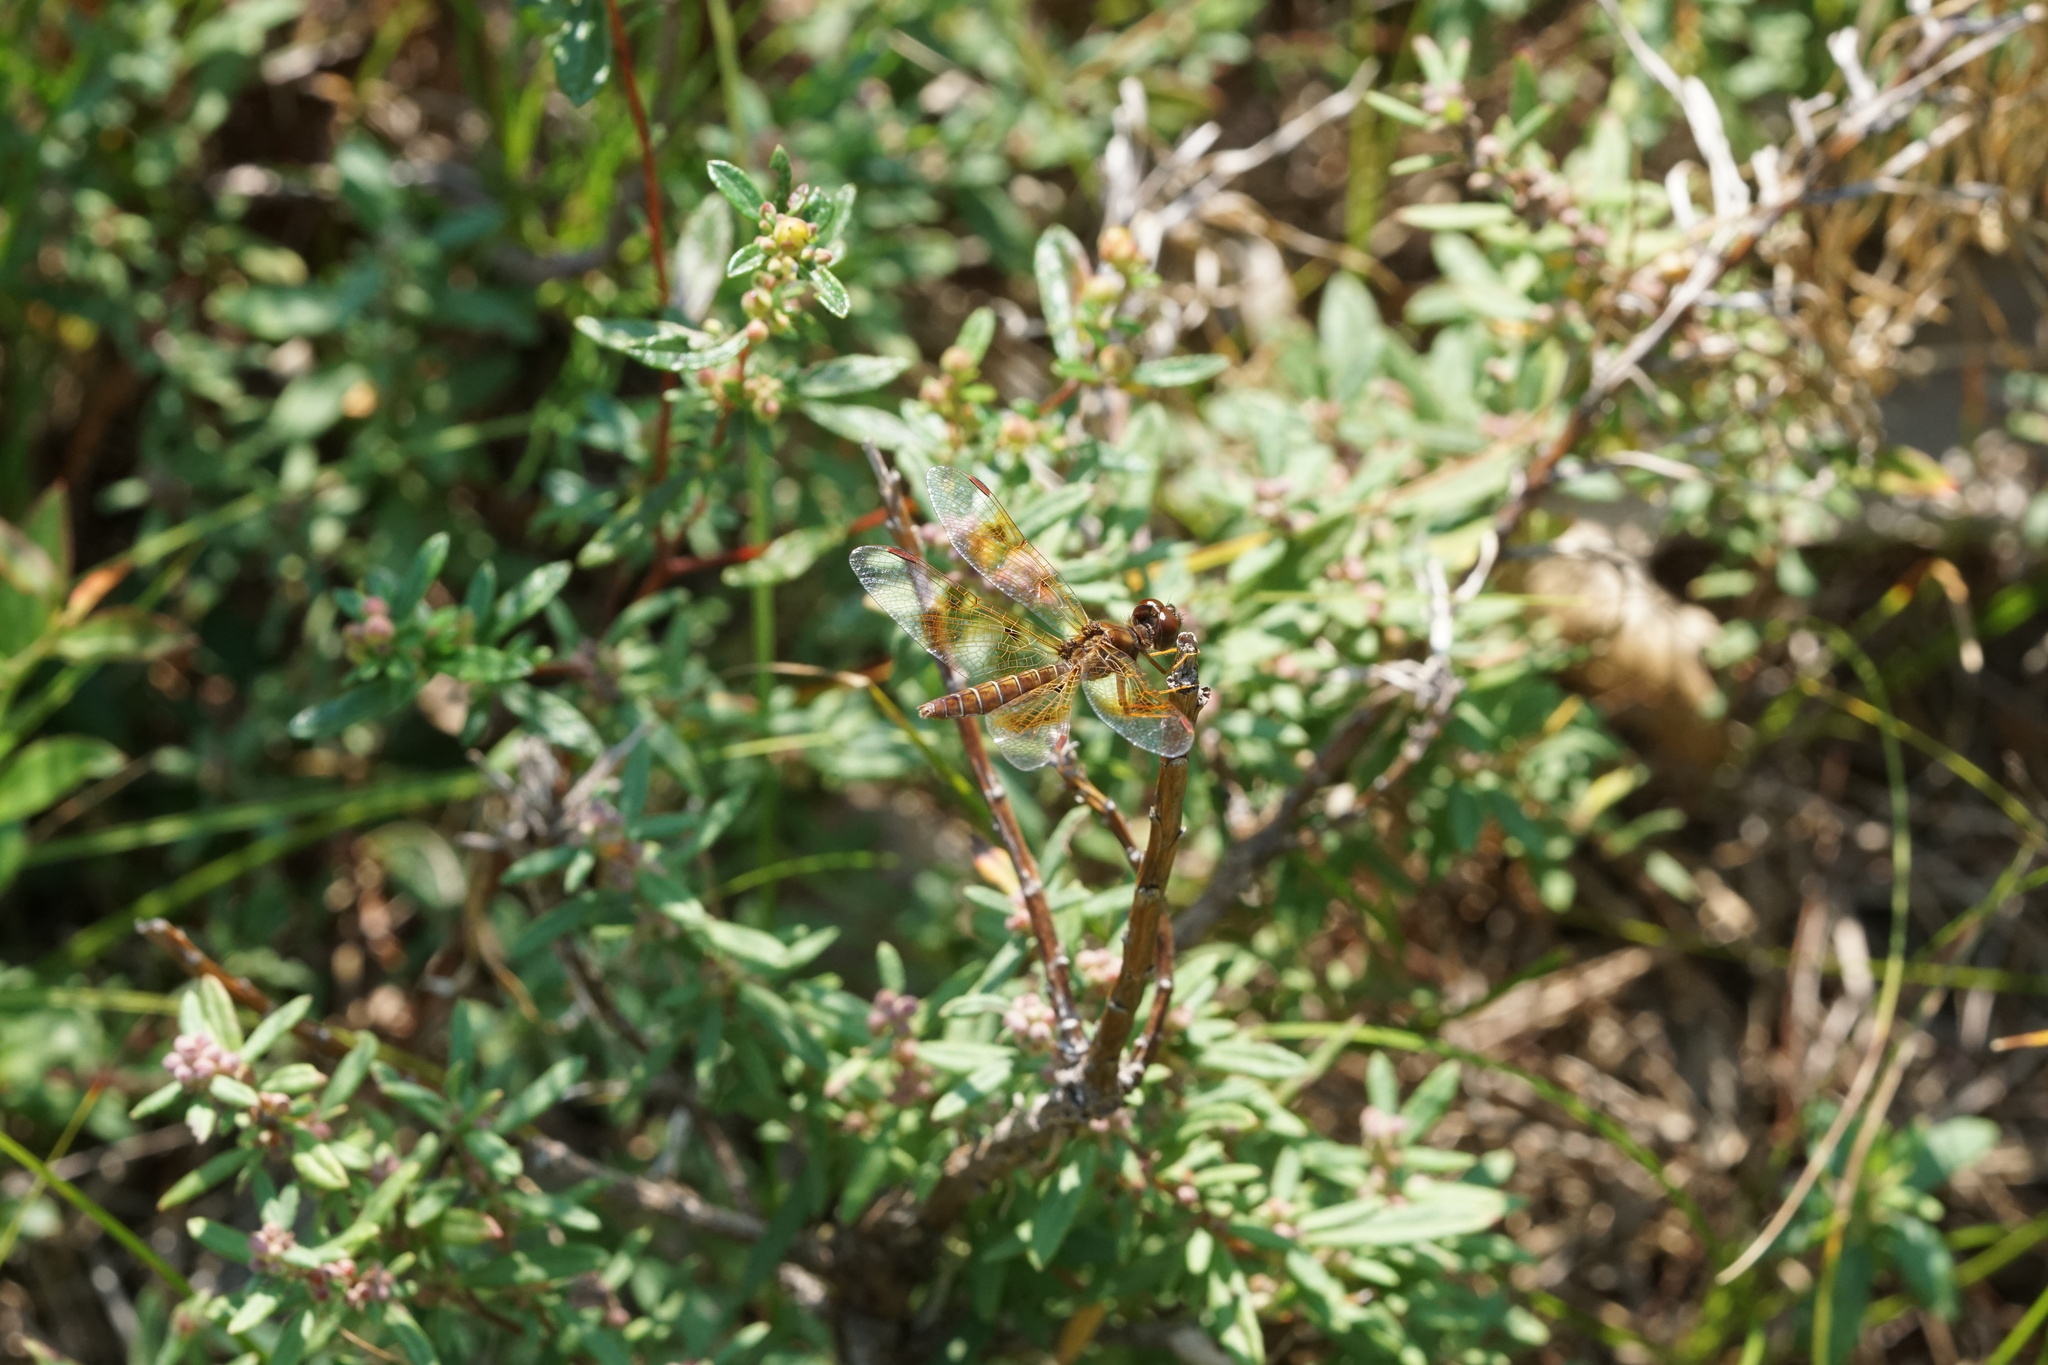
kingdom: Animalia
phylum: Arthropoda
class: Insecta
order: Odonata
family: Libellulidae
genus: Perithemis
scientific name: Perithemis tenera
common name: Eastern amberwing
